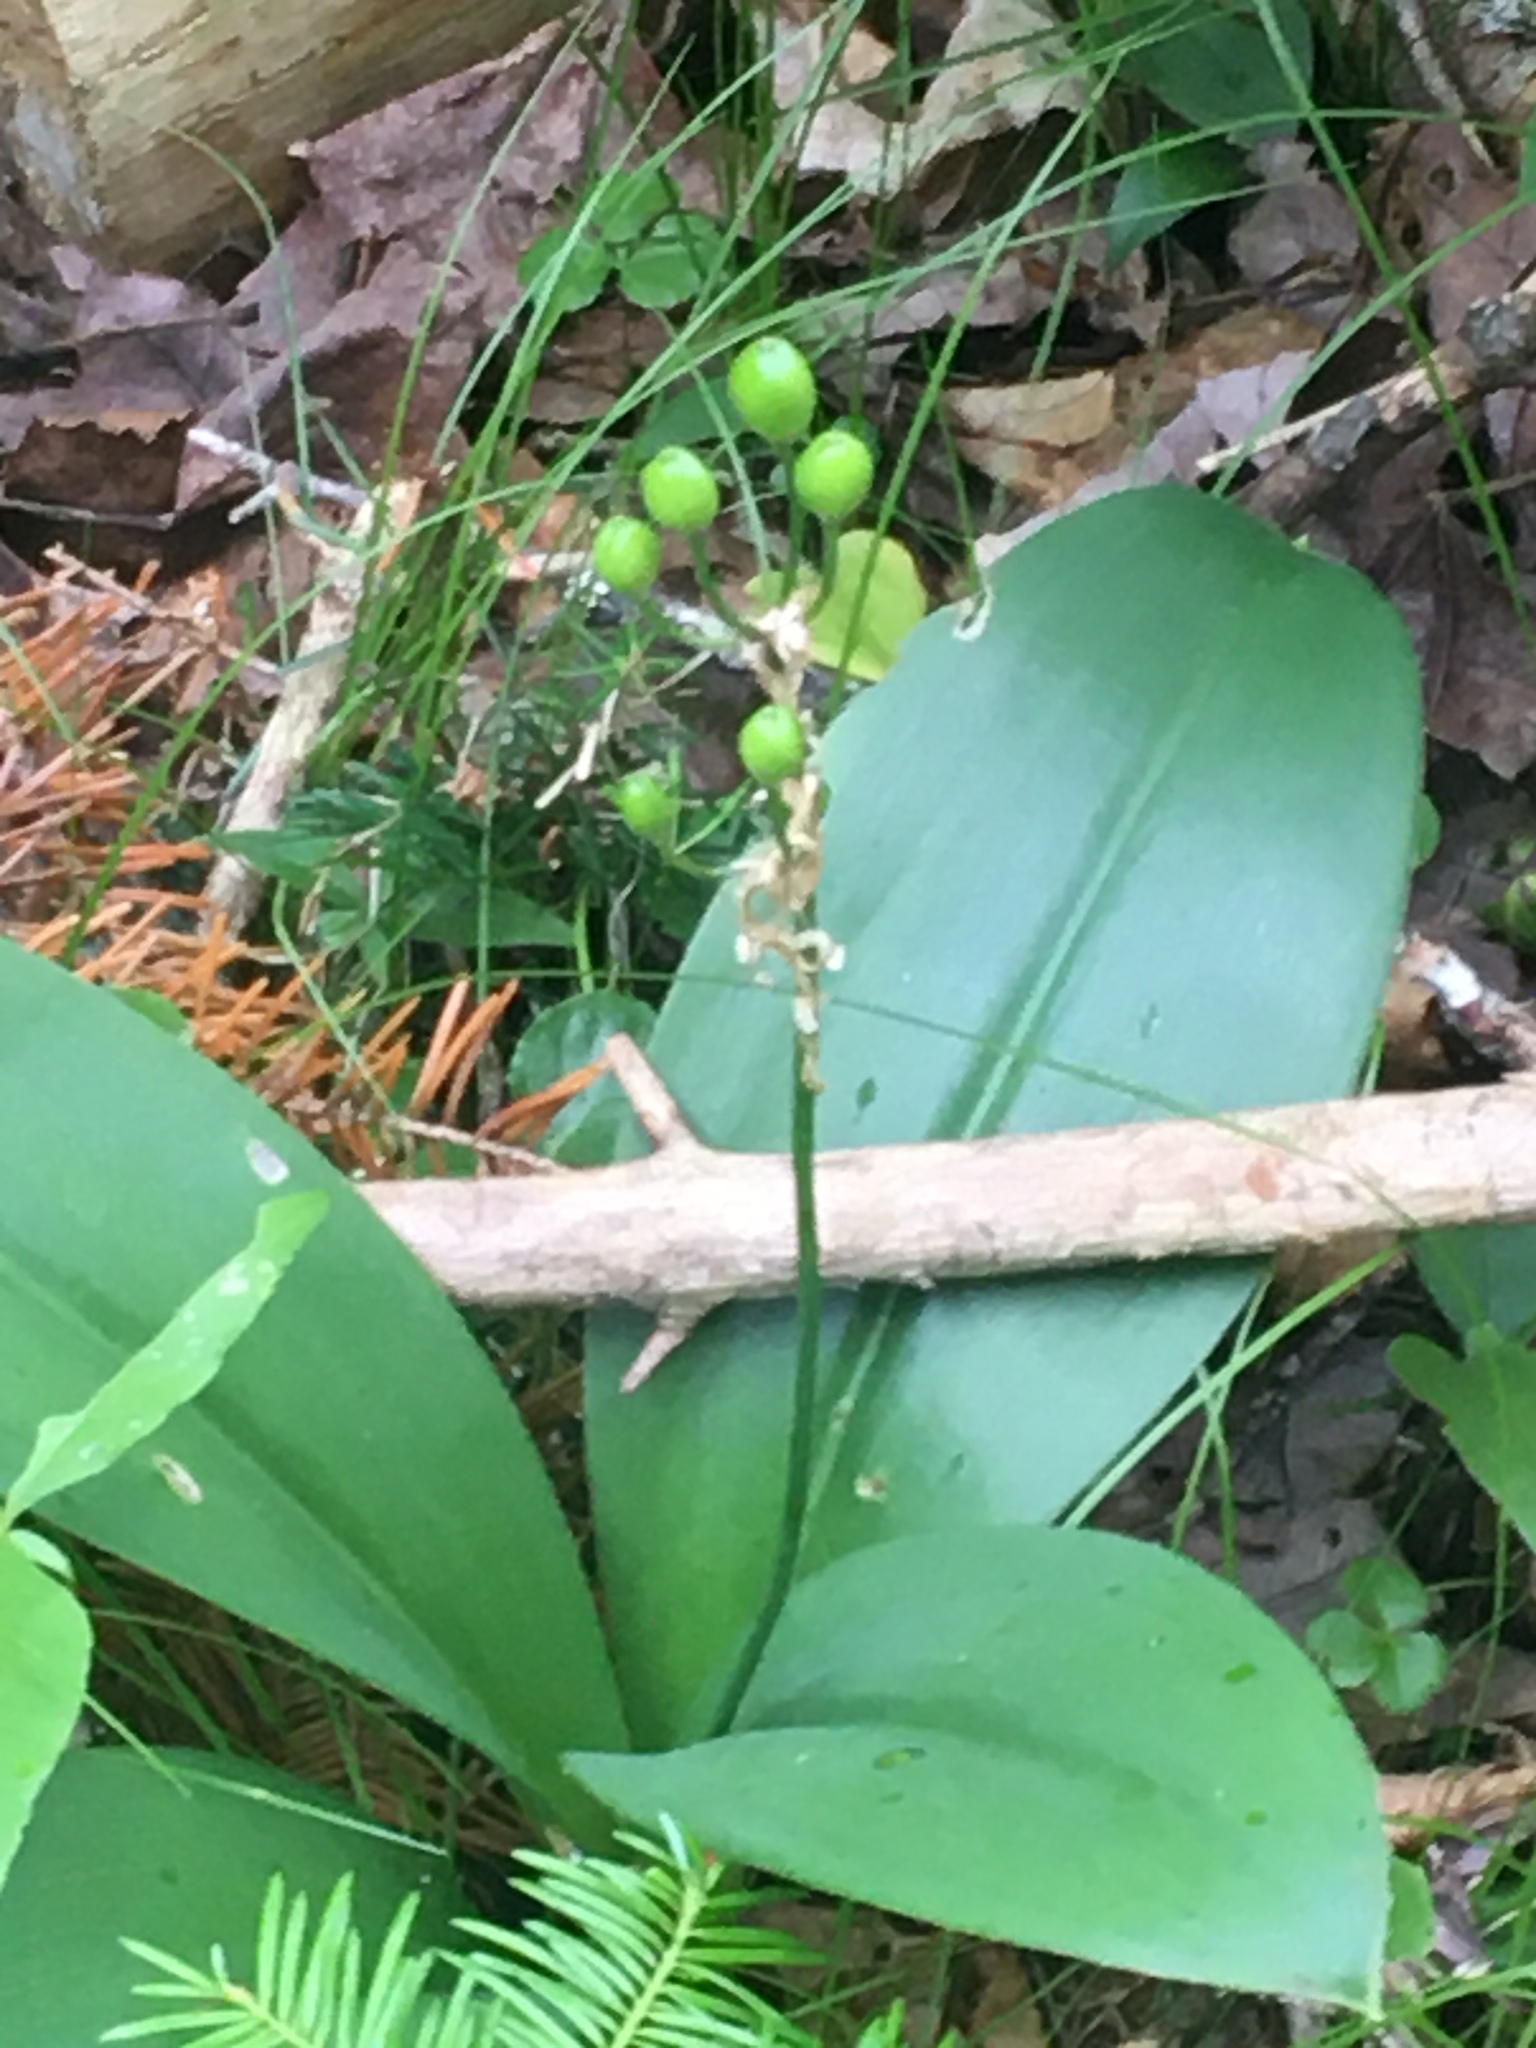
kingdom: Plantae
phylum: Tracheophyta
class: Liliopsida
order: Liliales
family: Liliaceae
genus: Clintonia
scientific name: Clintonia borealis
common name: Yellow clintonia
